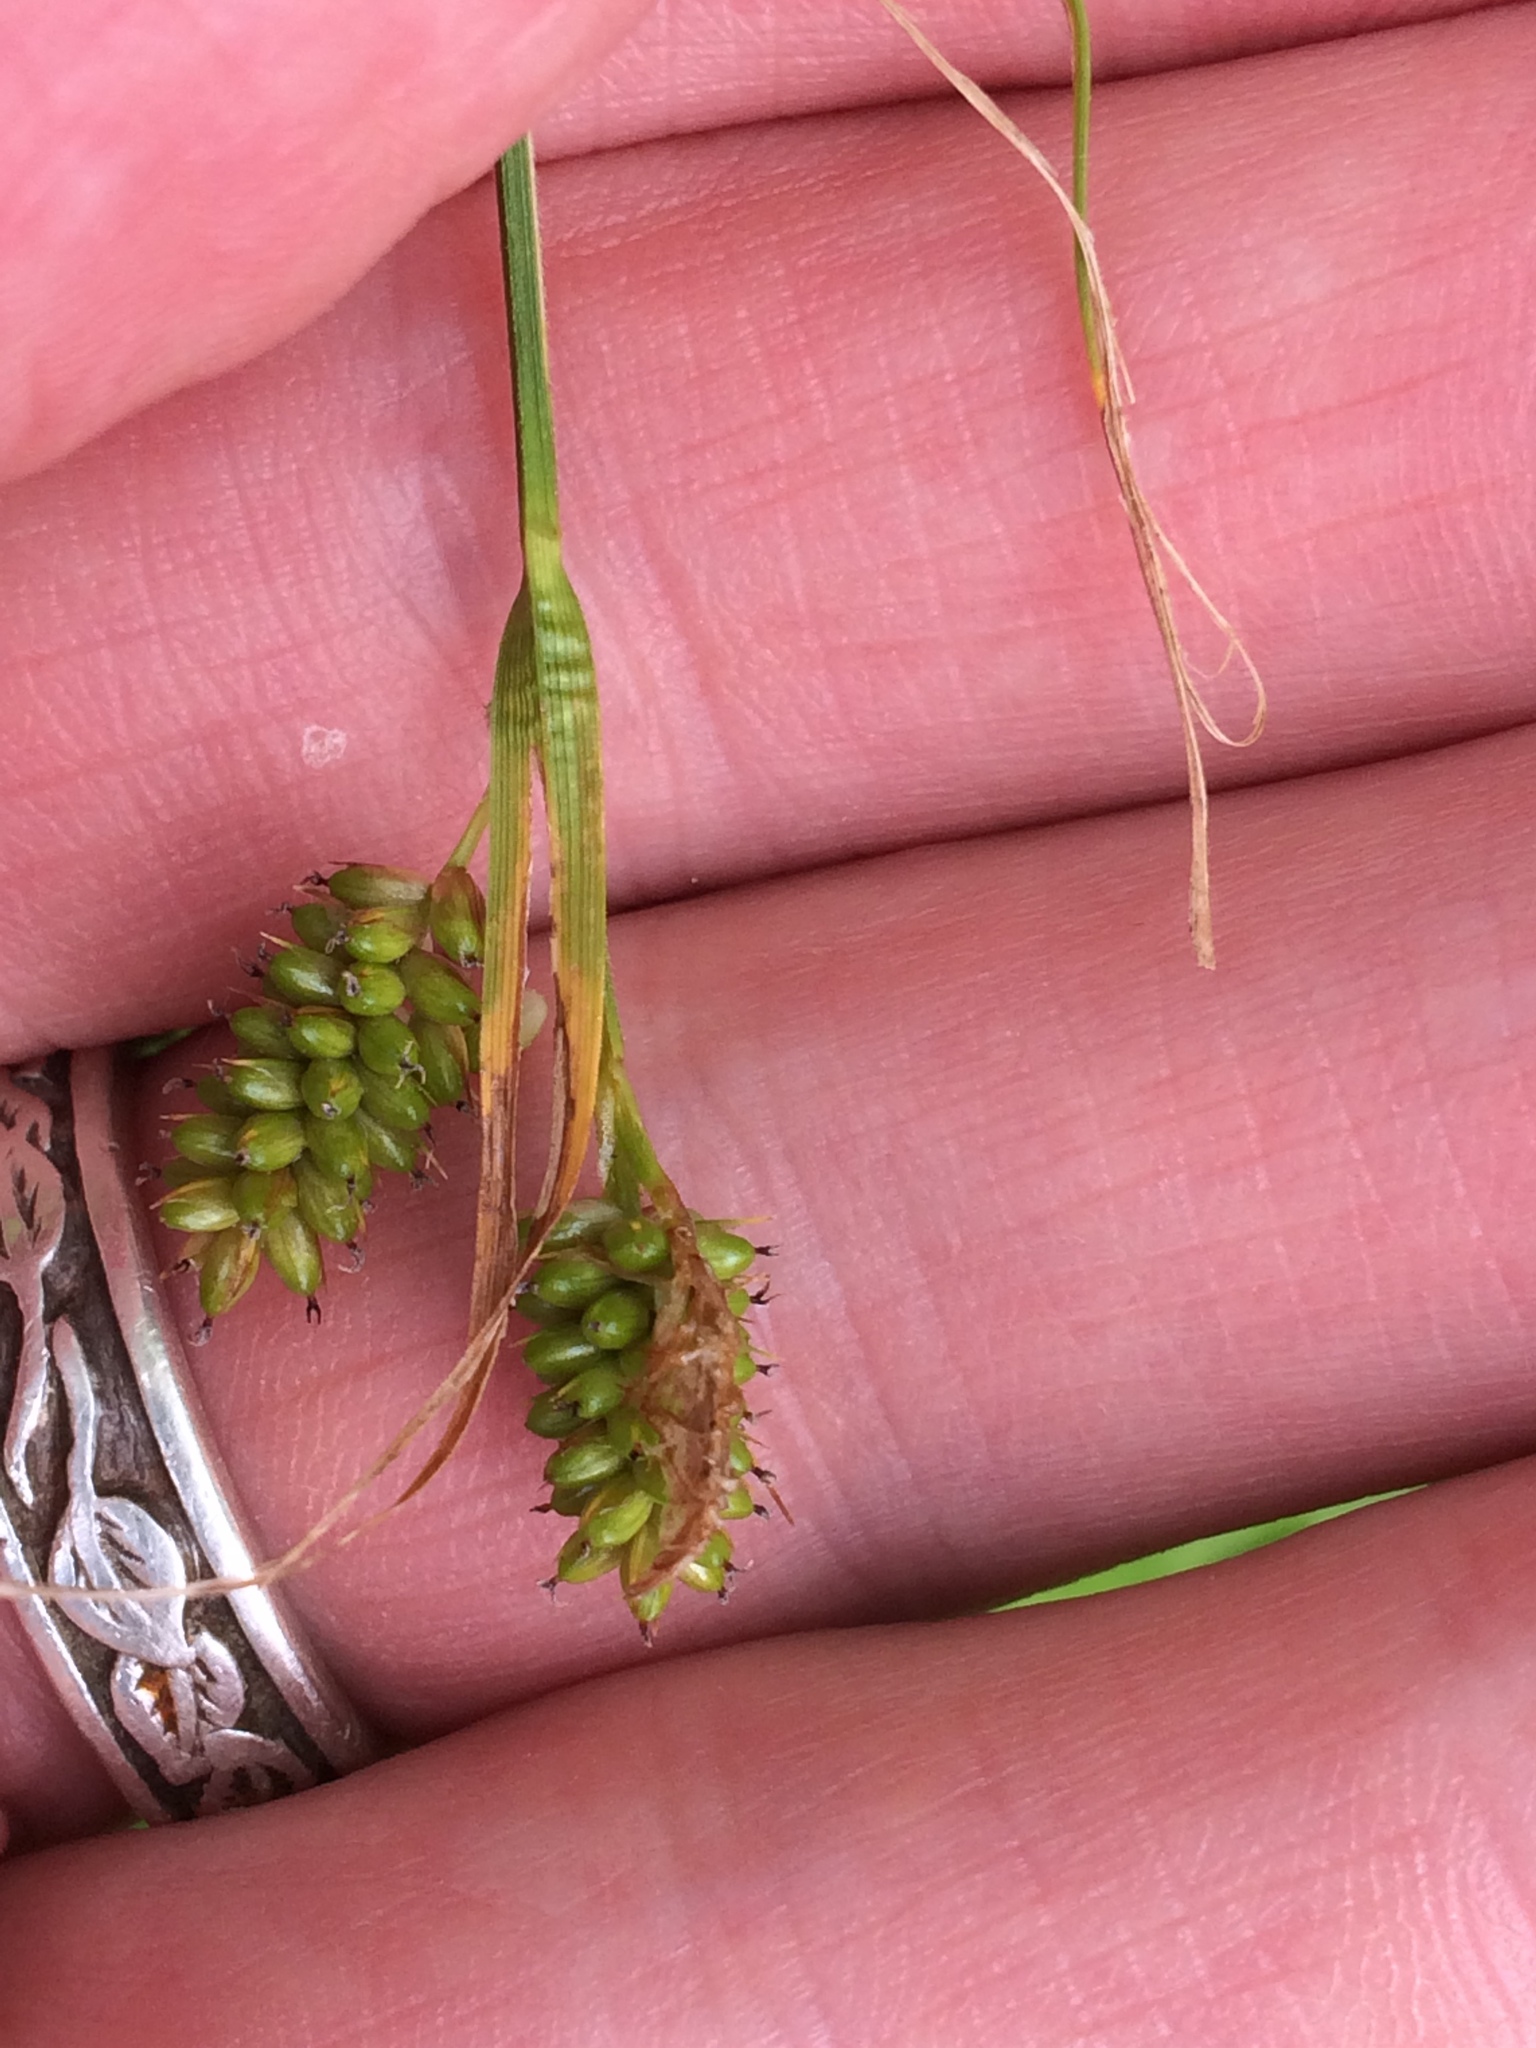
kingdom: Plantae
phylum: Tracheophyta
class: Liliopsida
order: Poales
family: Cyperaceae
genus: Carex
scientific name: Carex pallescens
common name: Pale sedge
